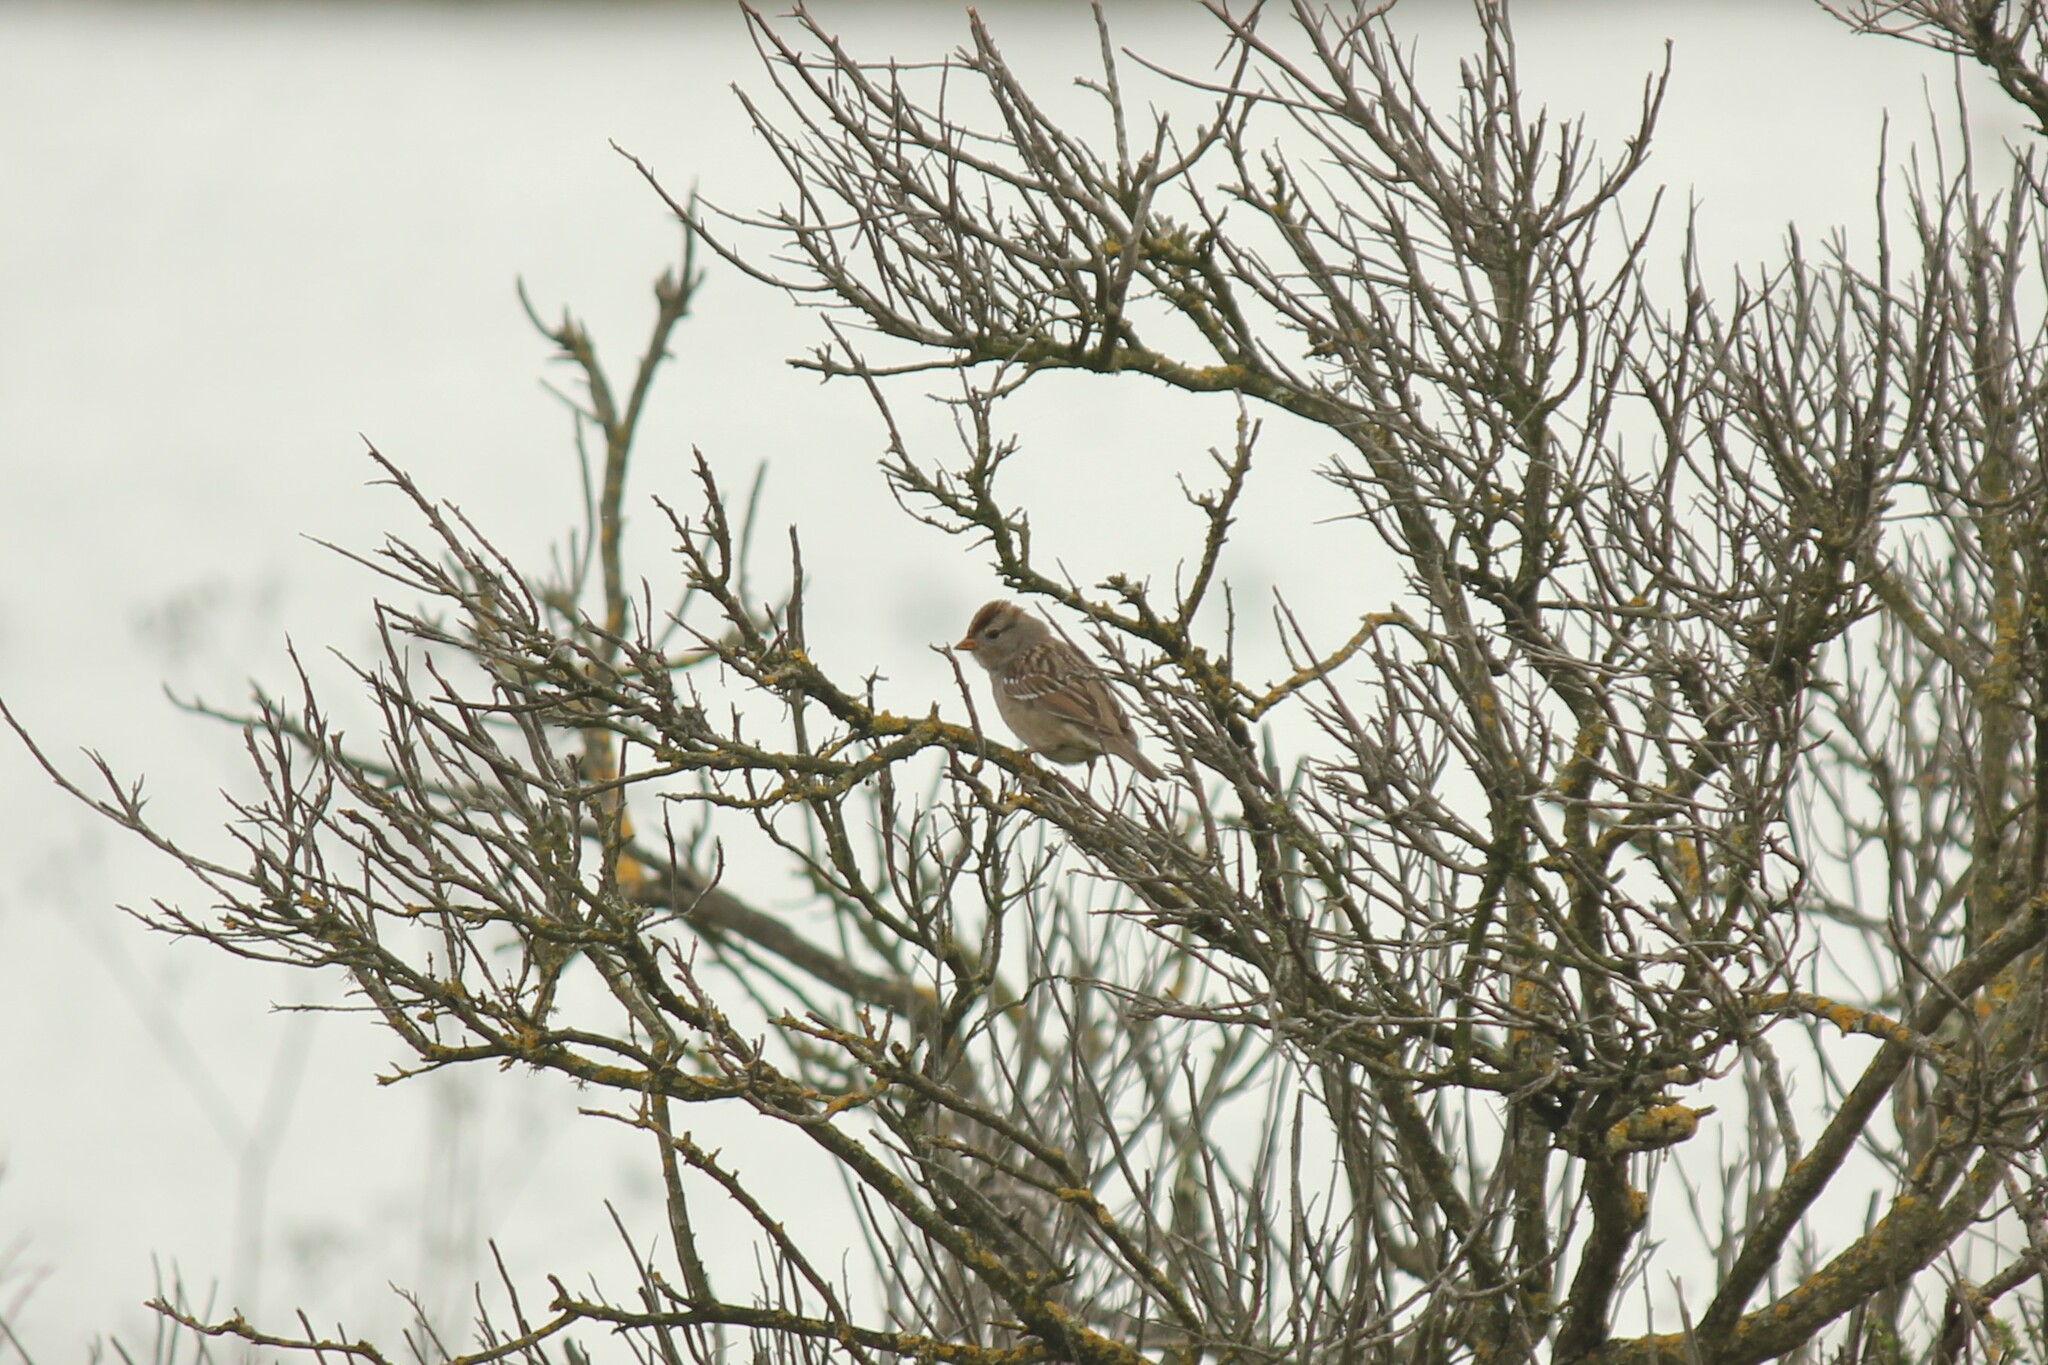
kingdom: Animalia
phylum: Chordata
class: Aves
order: Passeriformes
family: Passerellidae
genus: Zonotrichia
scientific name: Zonotrichia leucophrys
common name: White-crowned sparrow
